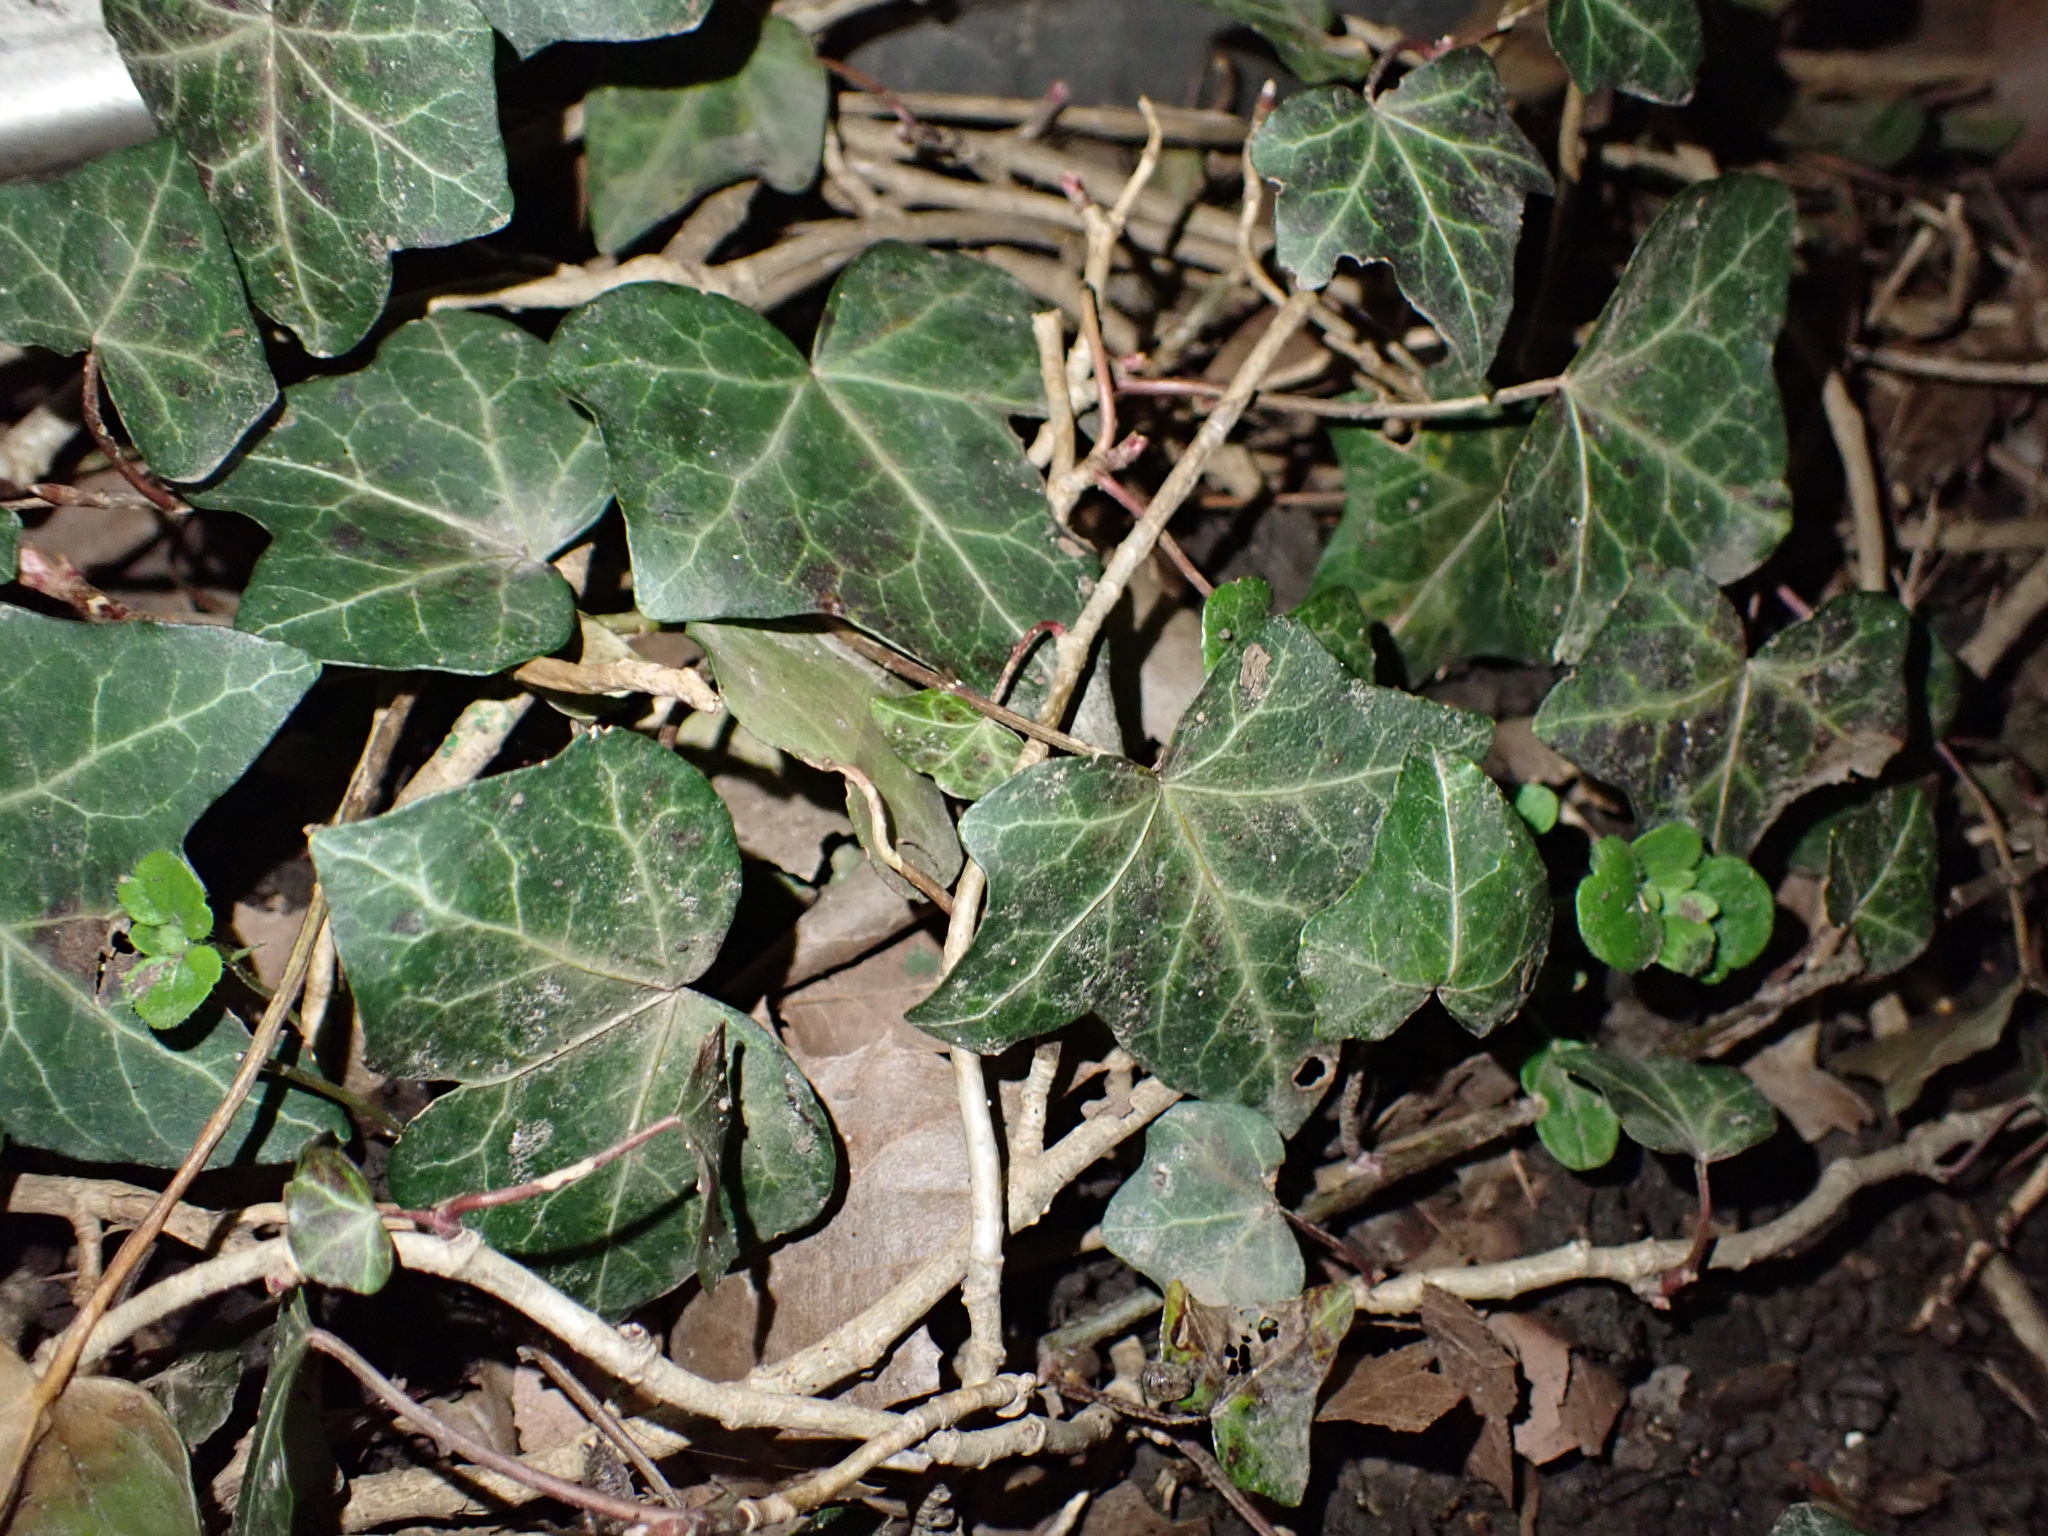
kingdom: Plantae
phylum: Tracheophyta
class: Magnoliopsida
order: Apiales
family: Araliaceae
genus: Hedera
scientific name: Hedera helix
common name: Ivy
